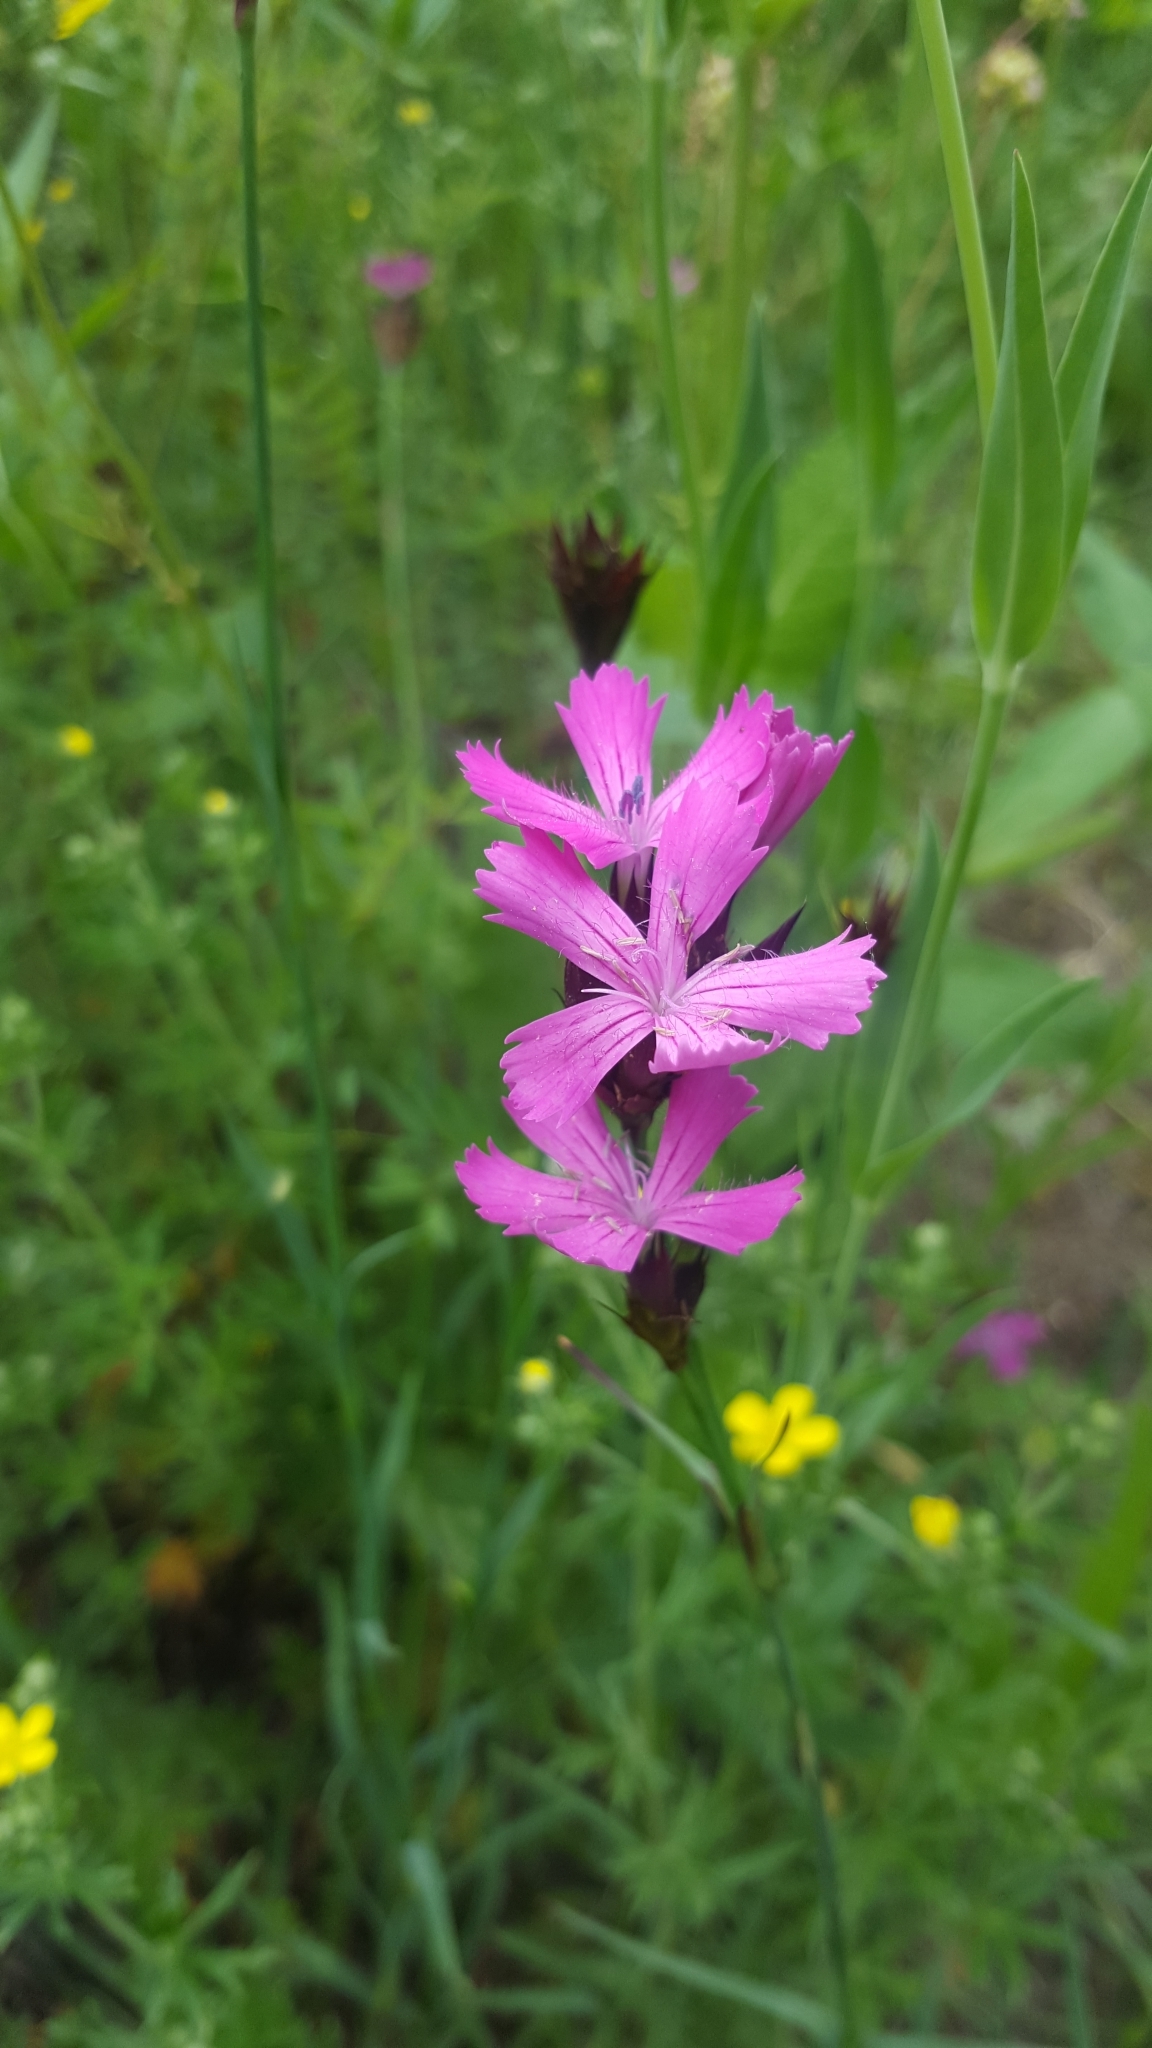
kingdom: Plantae
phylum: Tracheophyta
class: Magnoliopsida
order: Caryophyllales
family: Caryophyllaceae
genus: Dianthus
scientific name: Dianthus carthusianorum
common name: Carthusian pink
